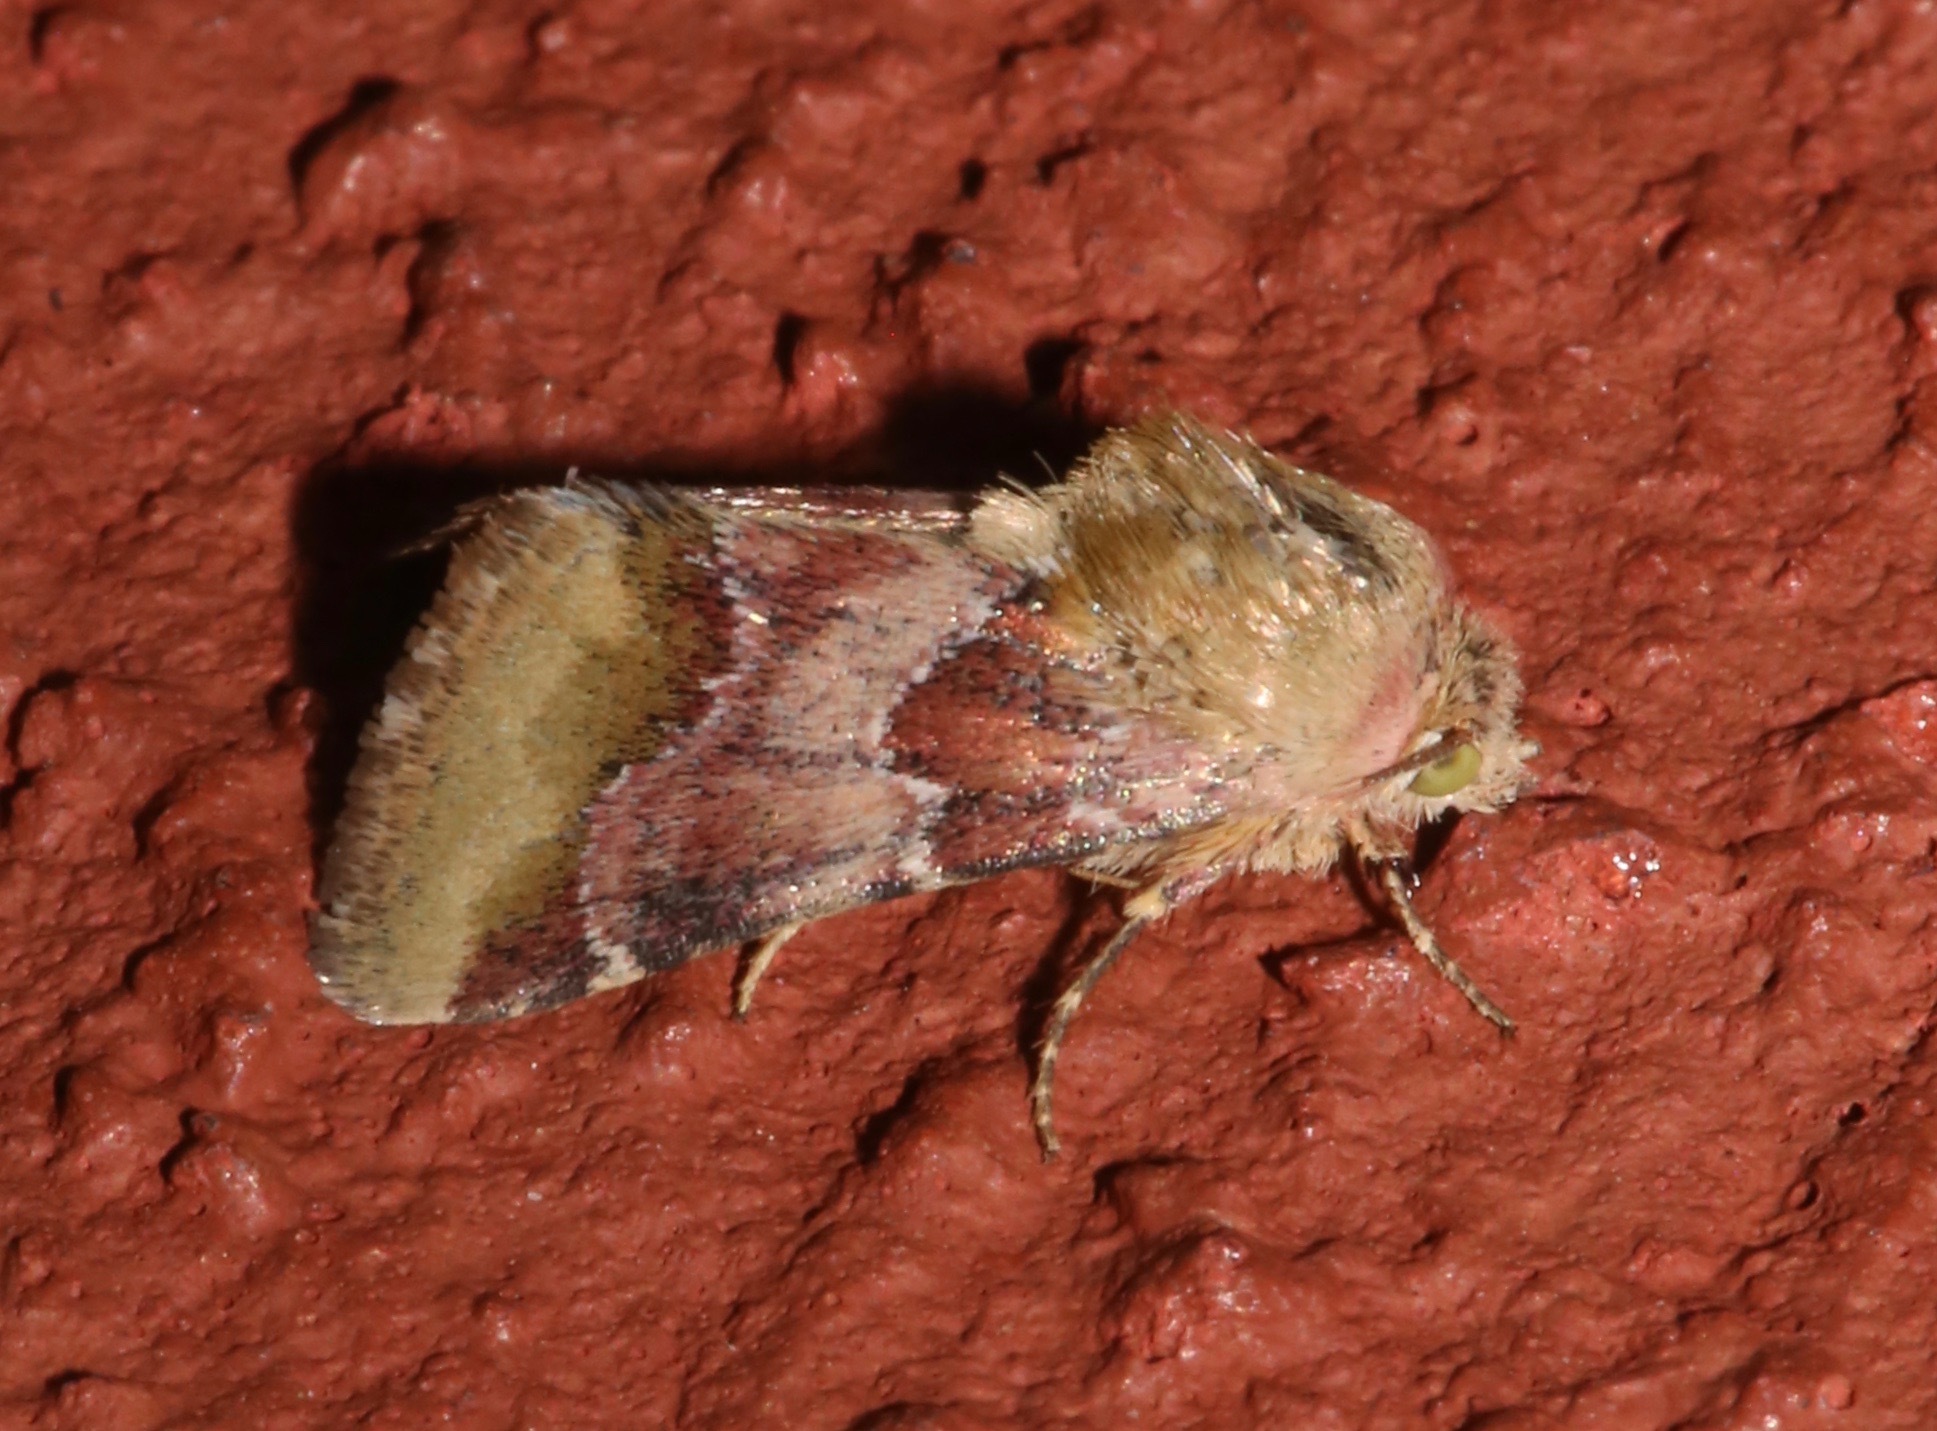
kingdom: Animalia
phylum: Arthropoda
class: Insecta
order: Lepidoptera
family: Noctuidae
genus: Schinia
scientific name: Schinia bina
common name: Bina flower moth
